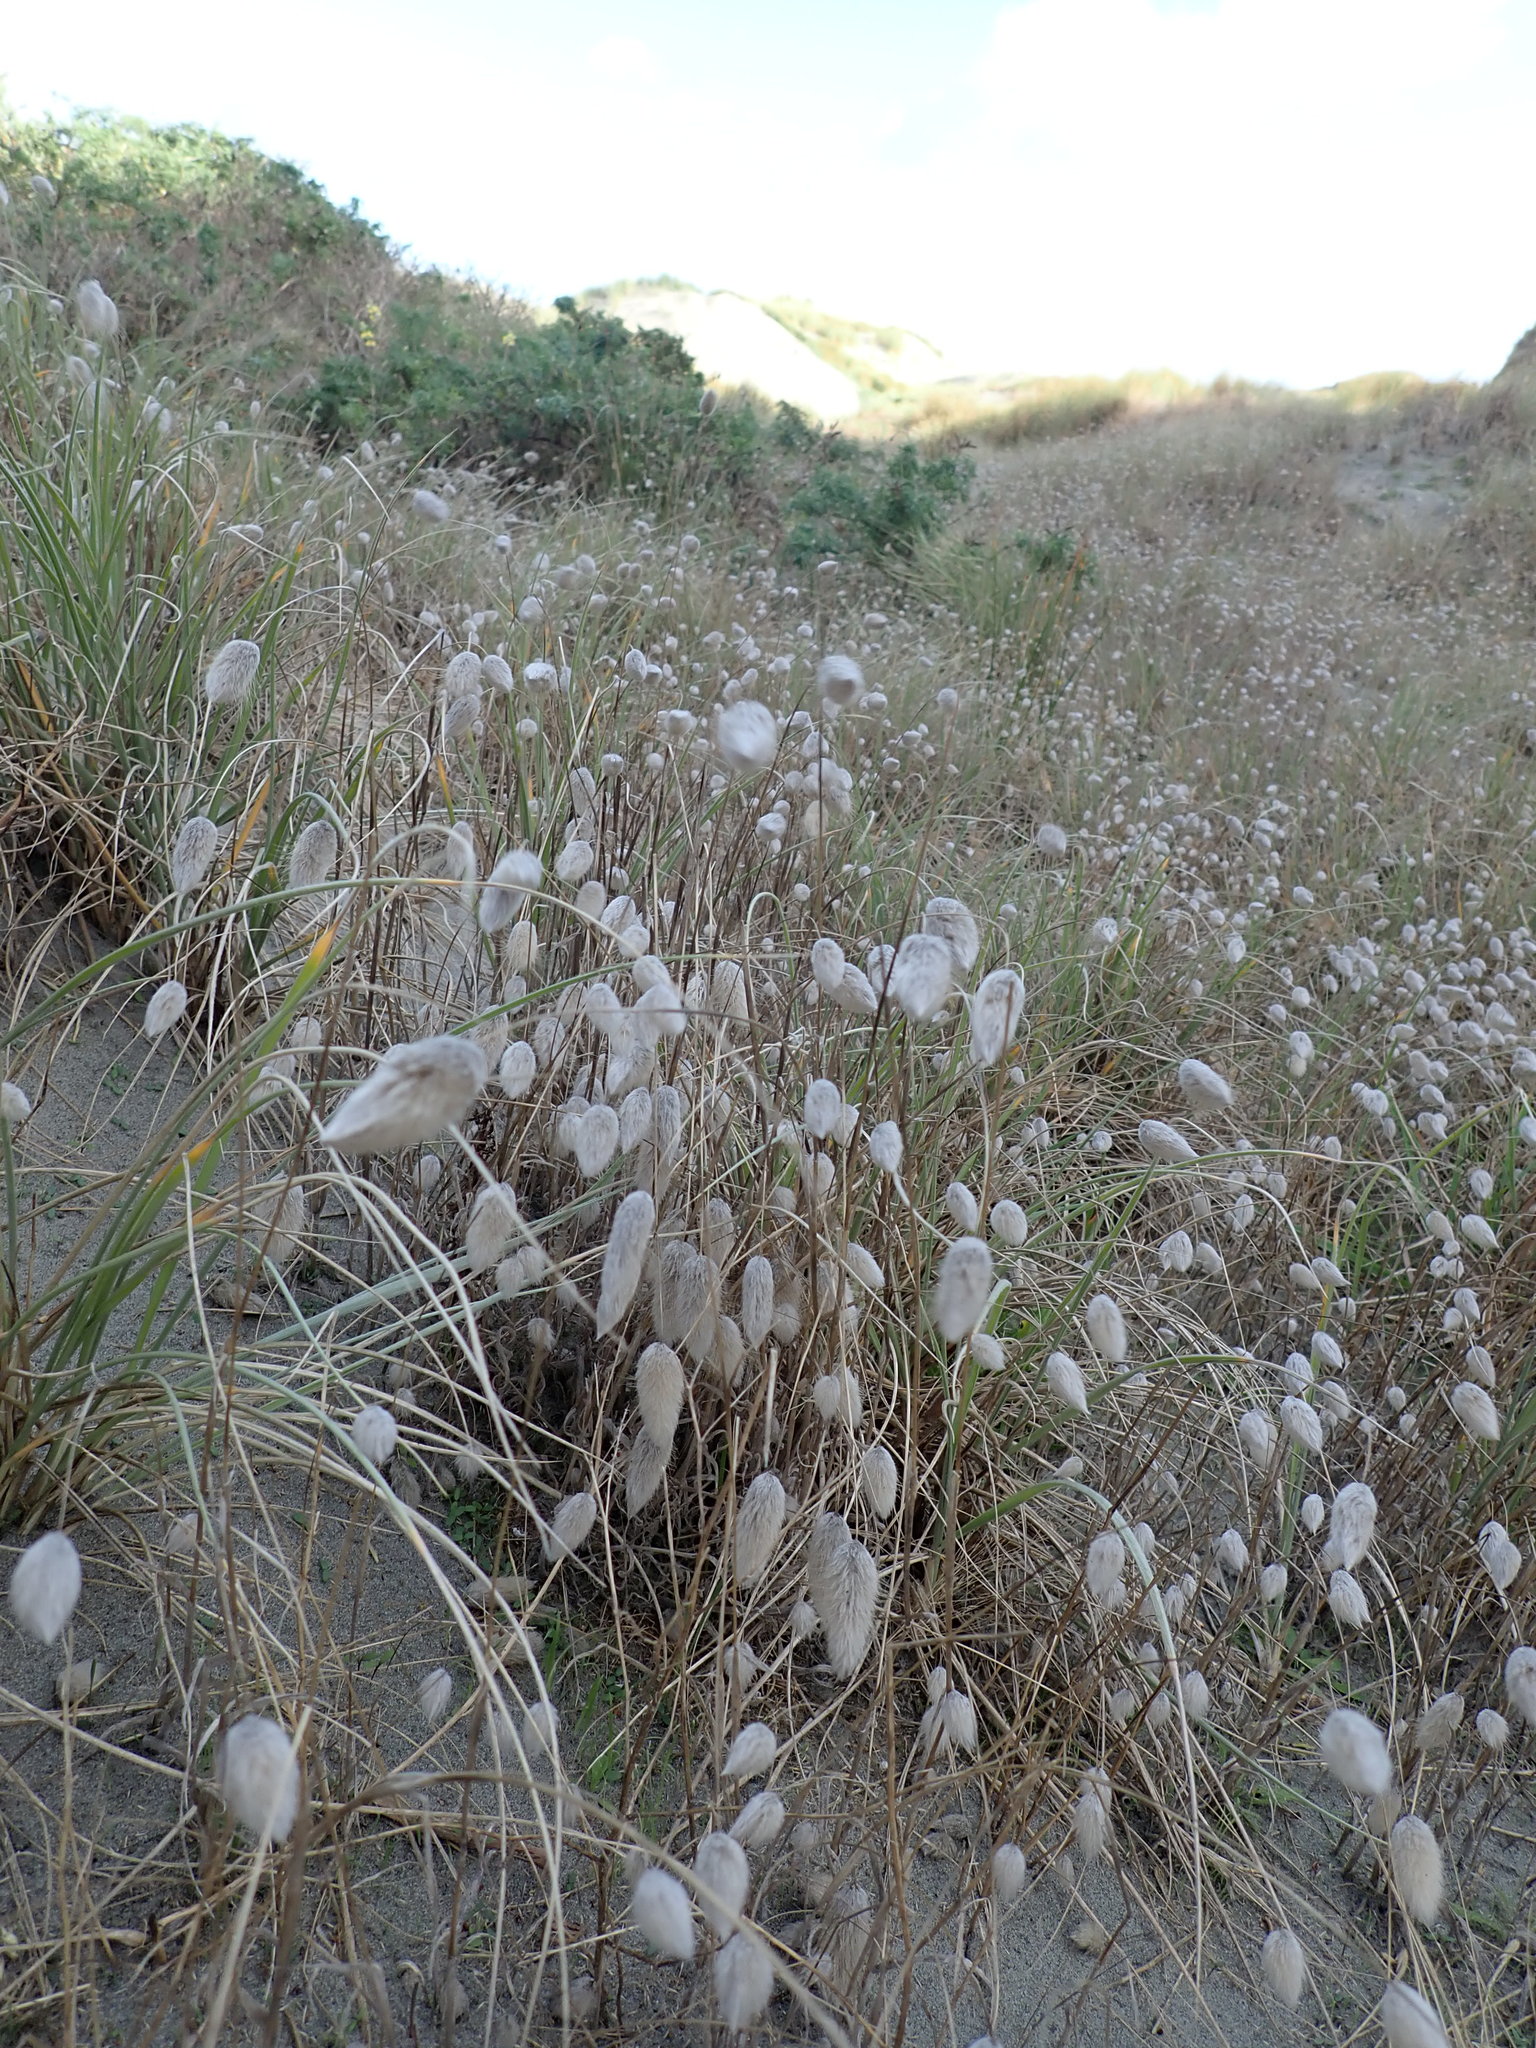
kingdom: Plantae
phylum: Tracheophyta
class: Liliopsida
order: Poales
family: Poaceae
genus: Lagurus
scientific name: Lagurus ovatus
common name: Hare's-tail
